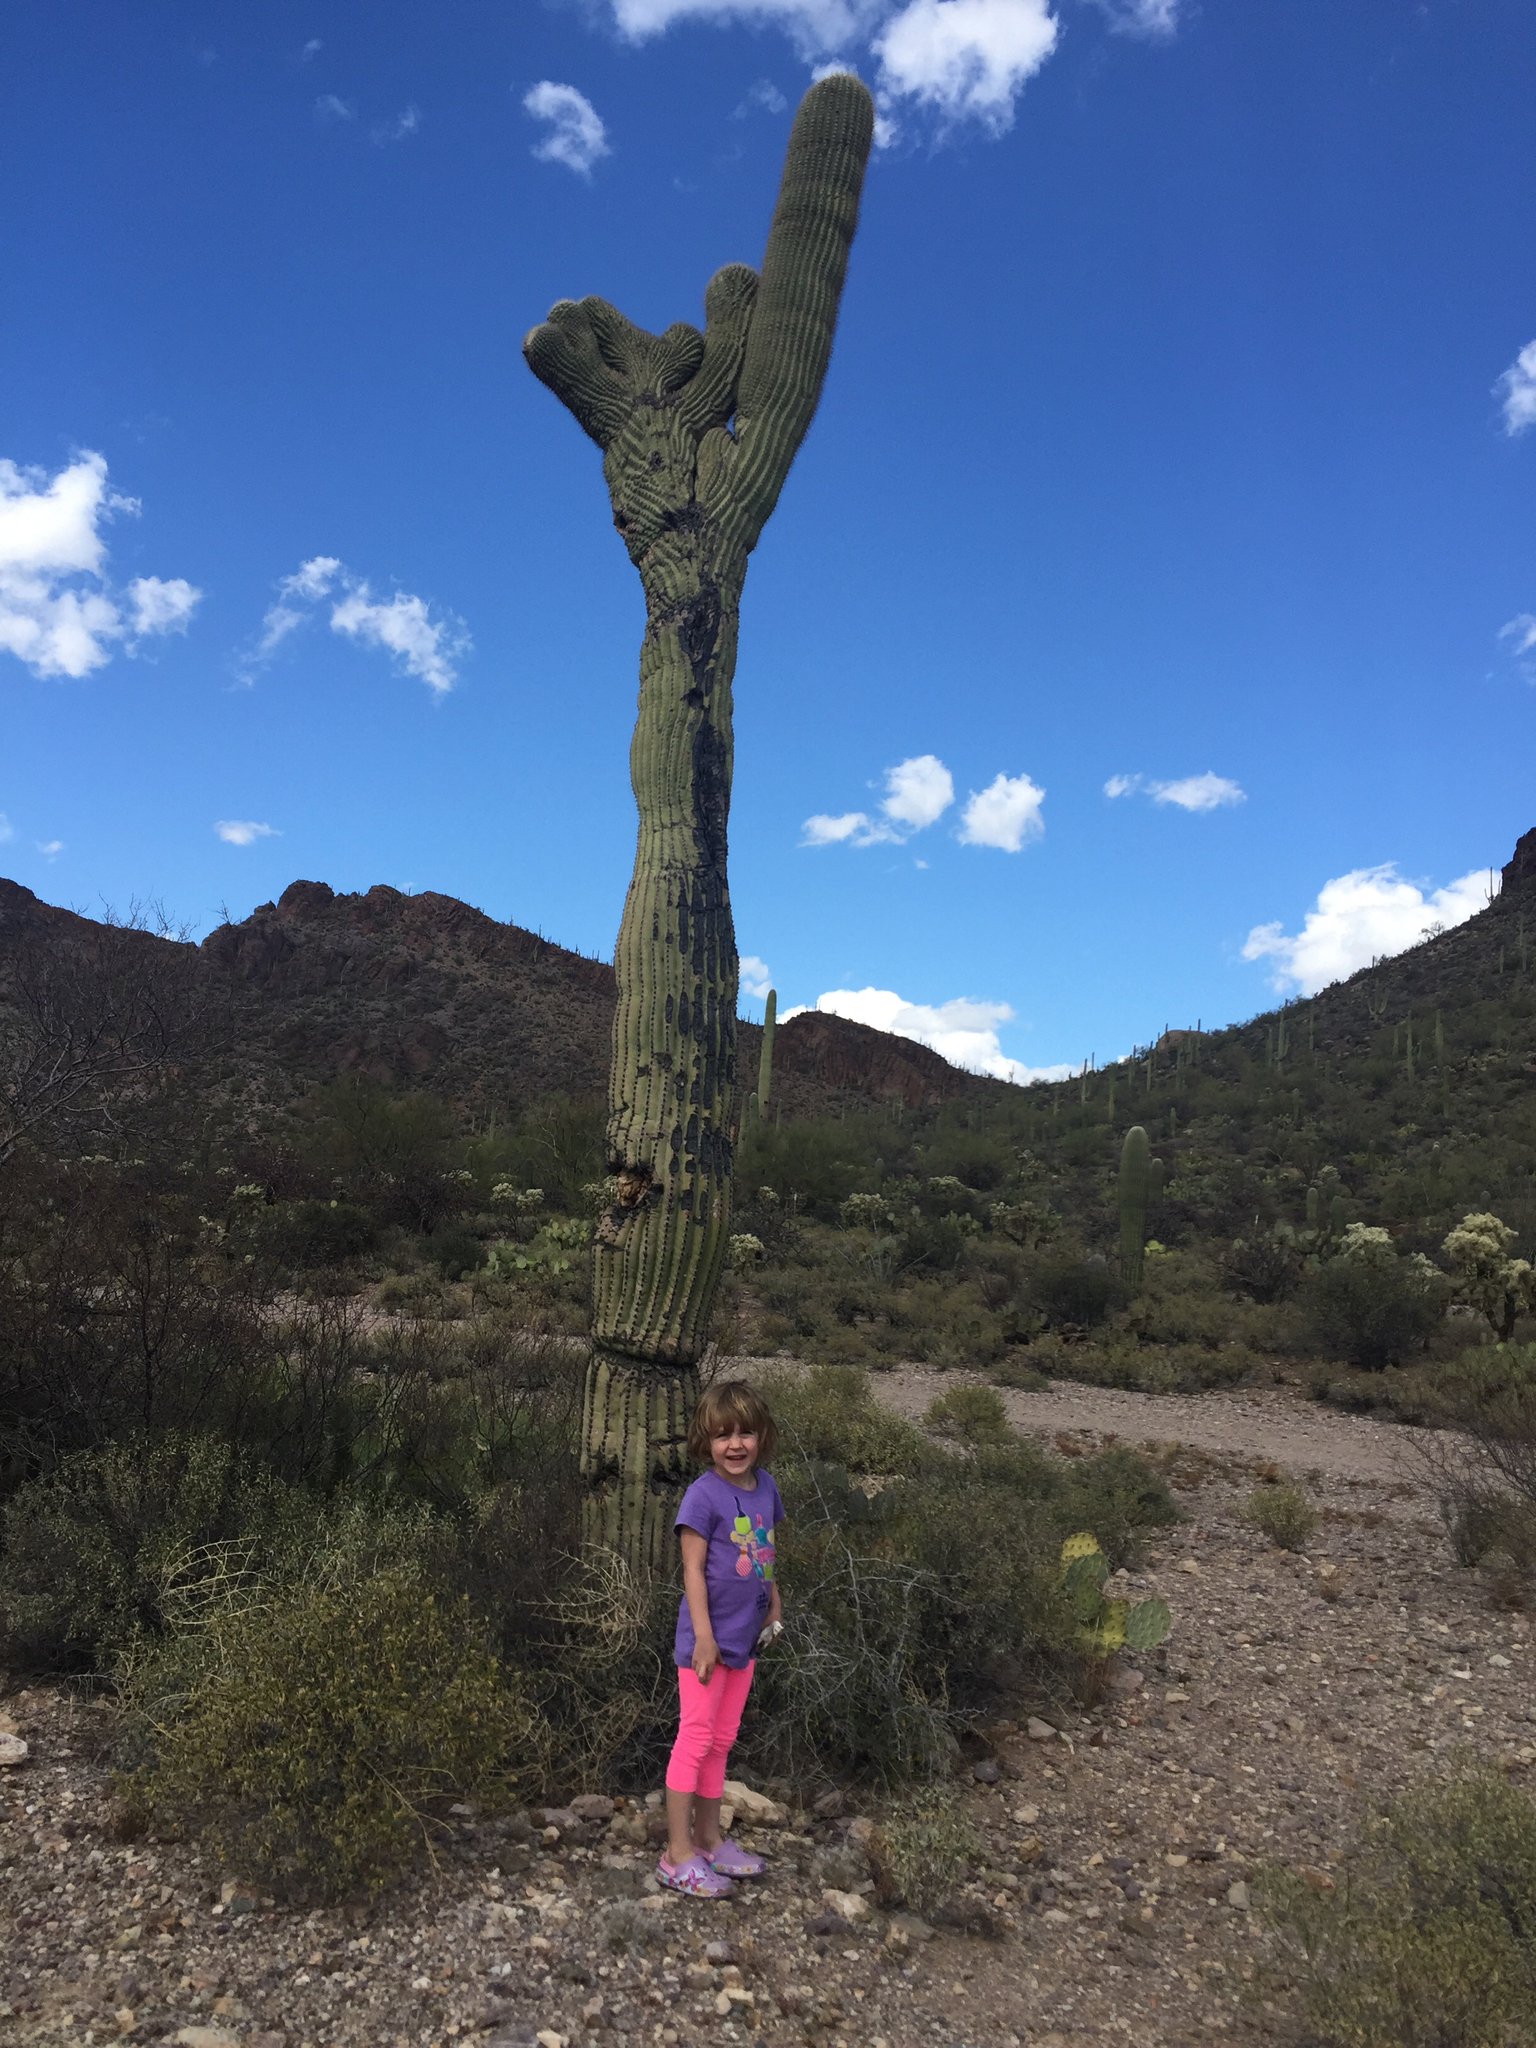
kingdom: Plantae
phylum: Tracheophyta
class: Magnoliopsida
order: Caryophyllales
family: Cactaceae
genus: Carnegiea
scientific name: Carnegiea gigantea
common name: Saguaro
